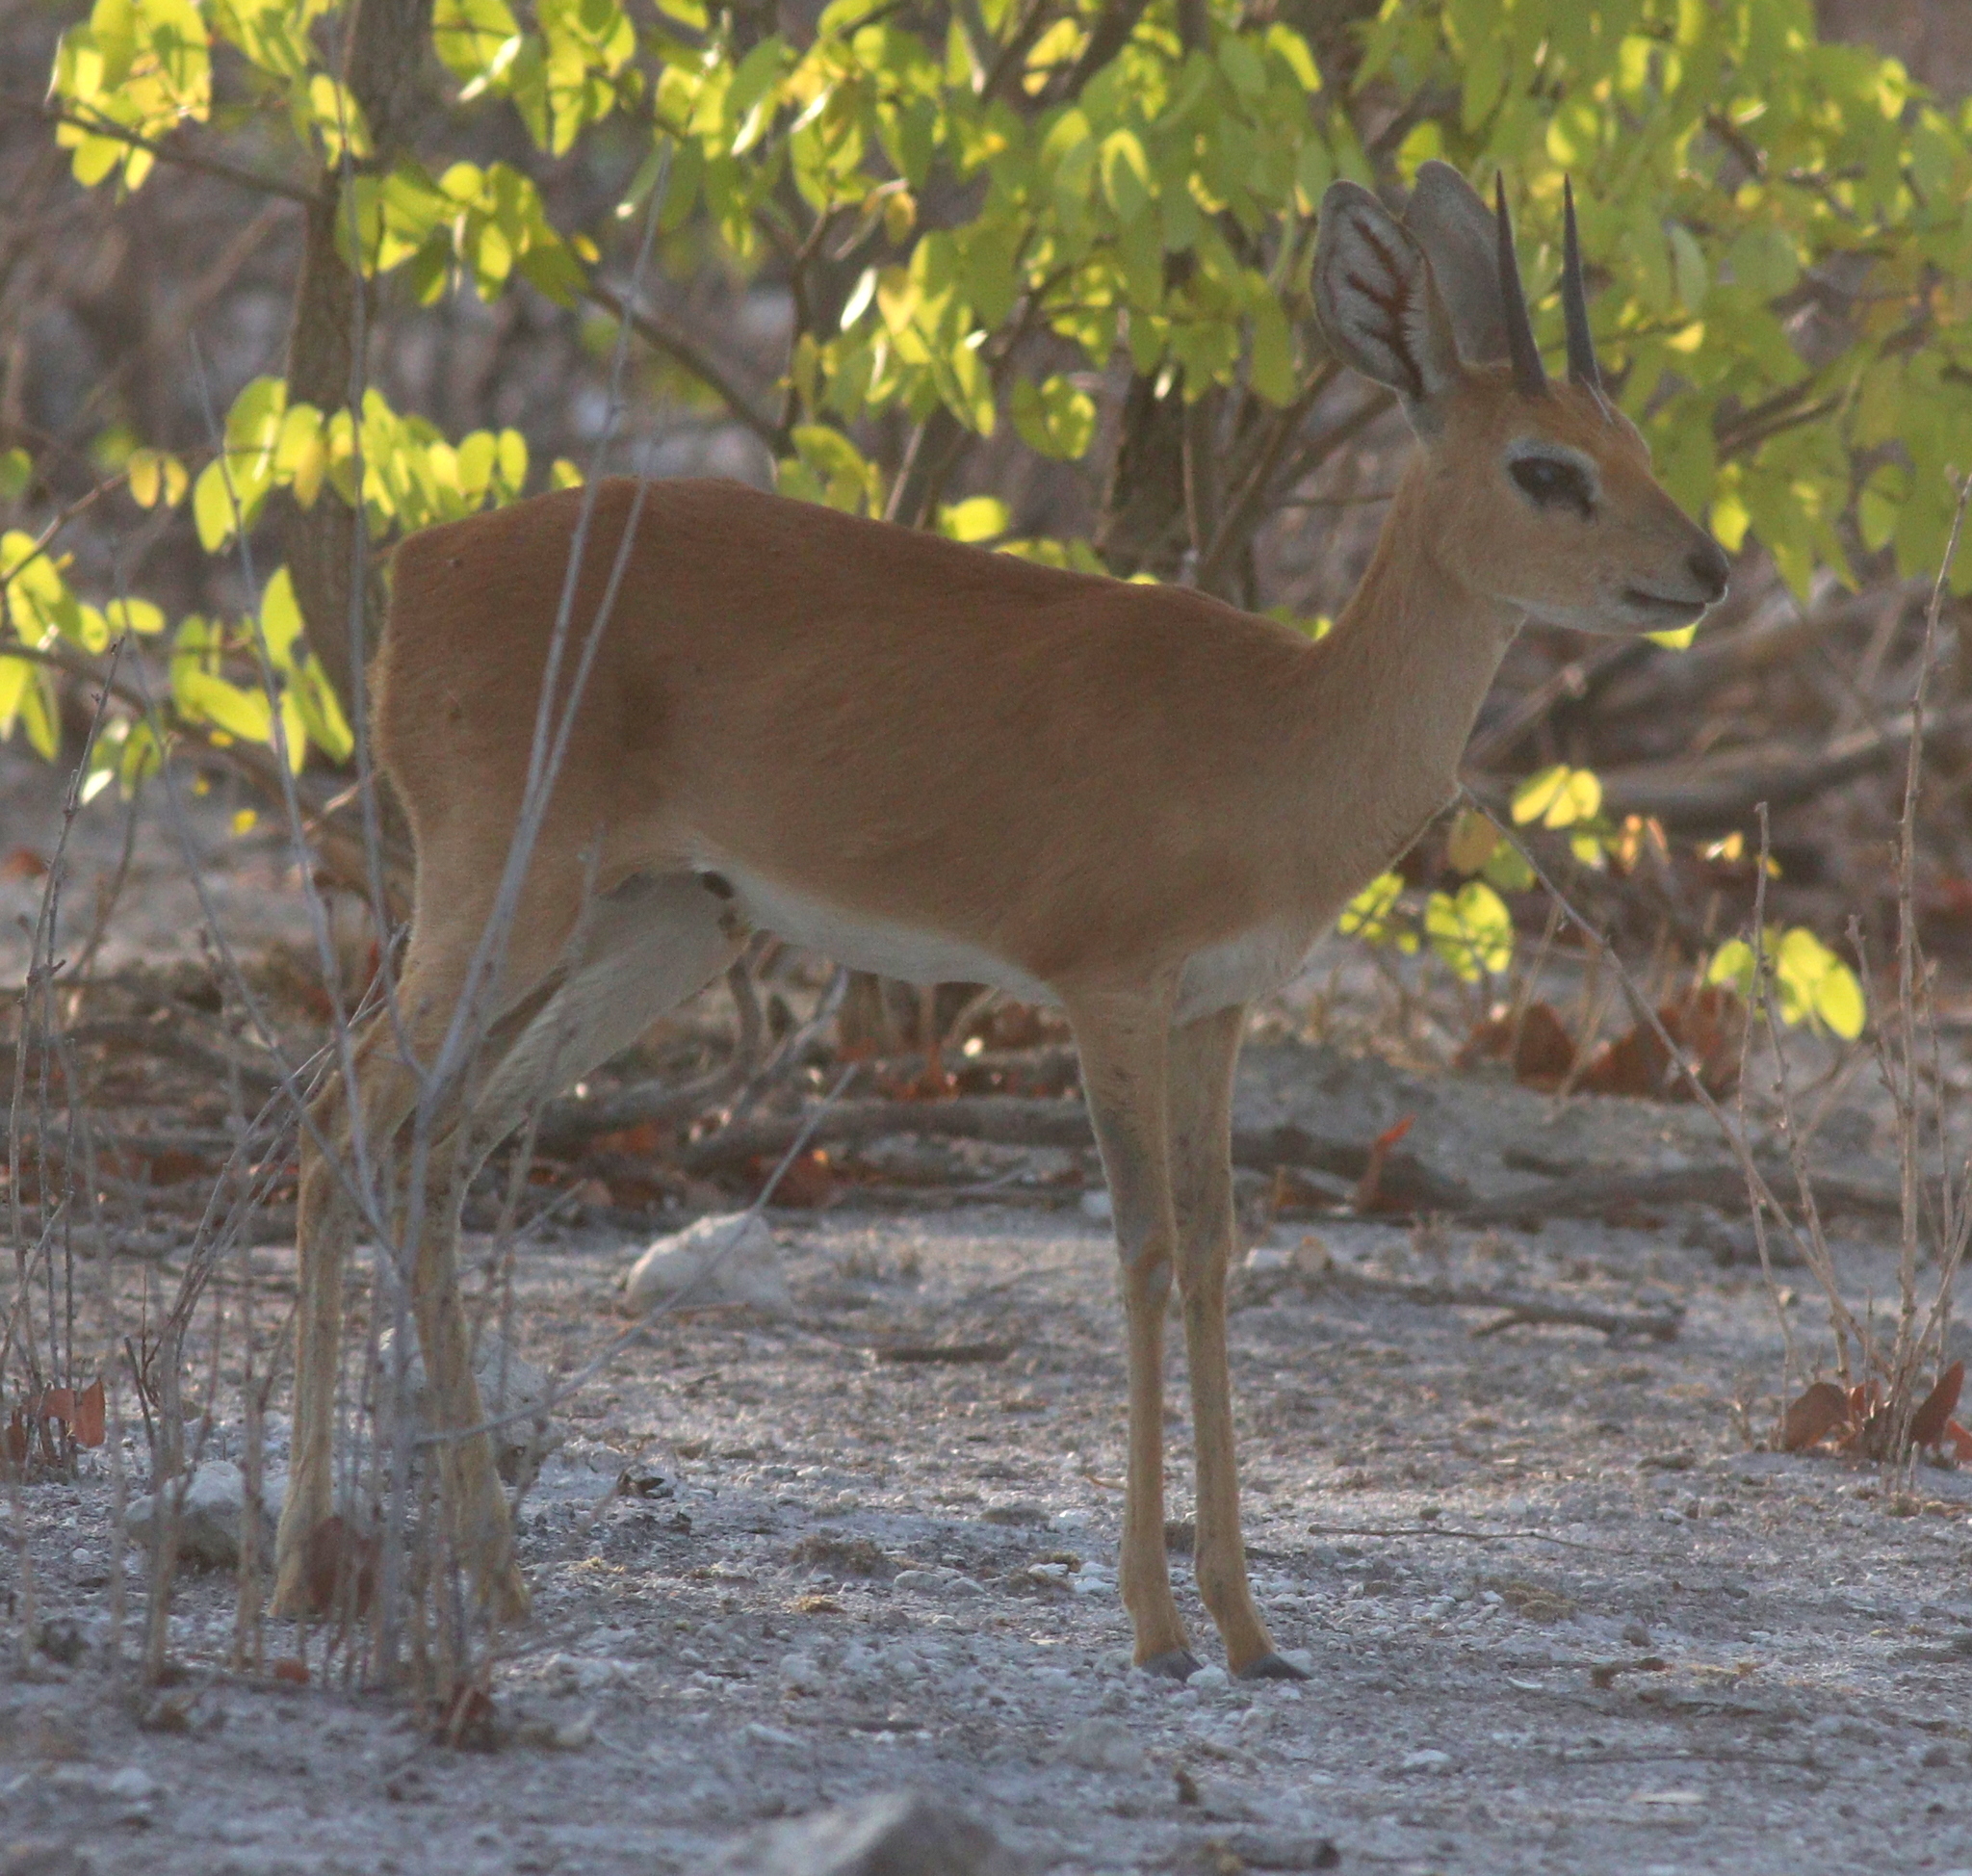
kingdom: Animalia
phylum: Chordata
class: Mammalia
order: Artiodactyla
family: Bovidae
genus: Raphicerus
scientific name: Raphicerus campestris
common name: Steenbok
